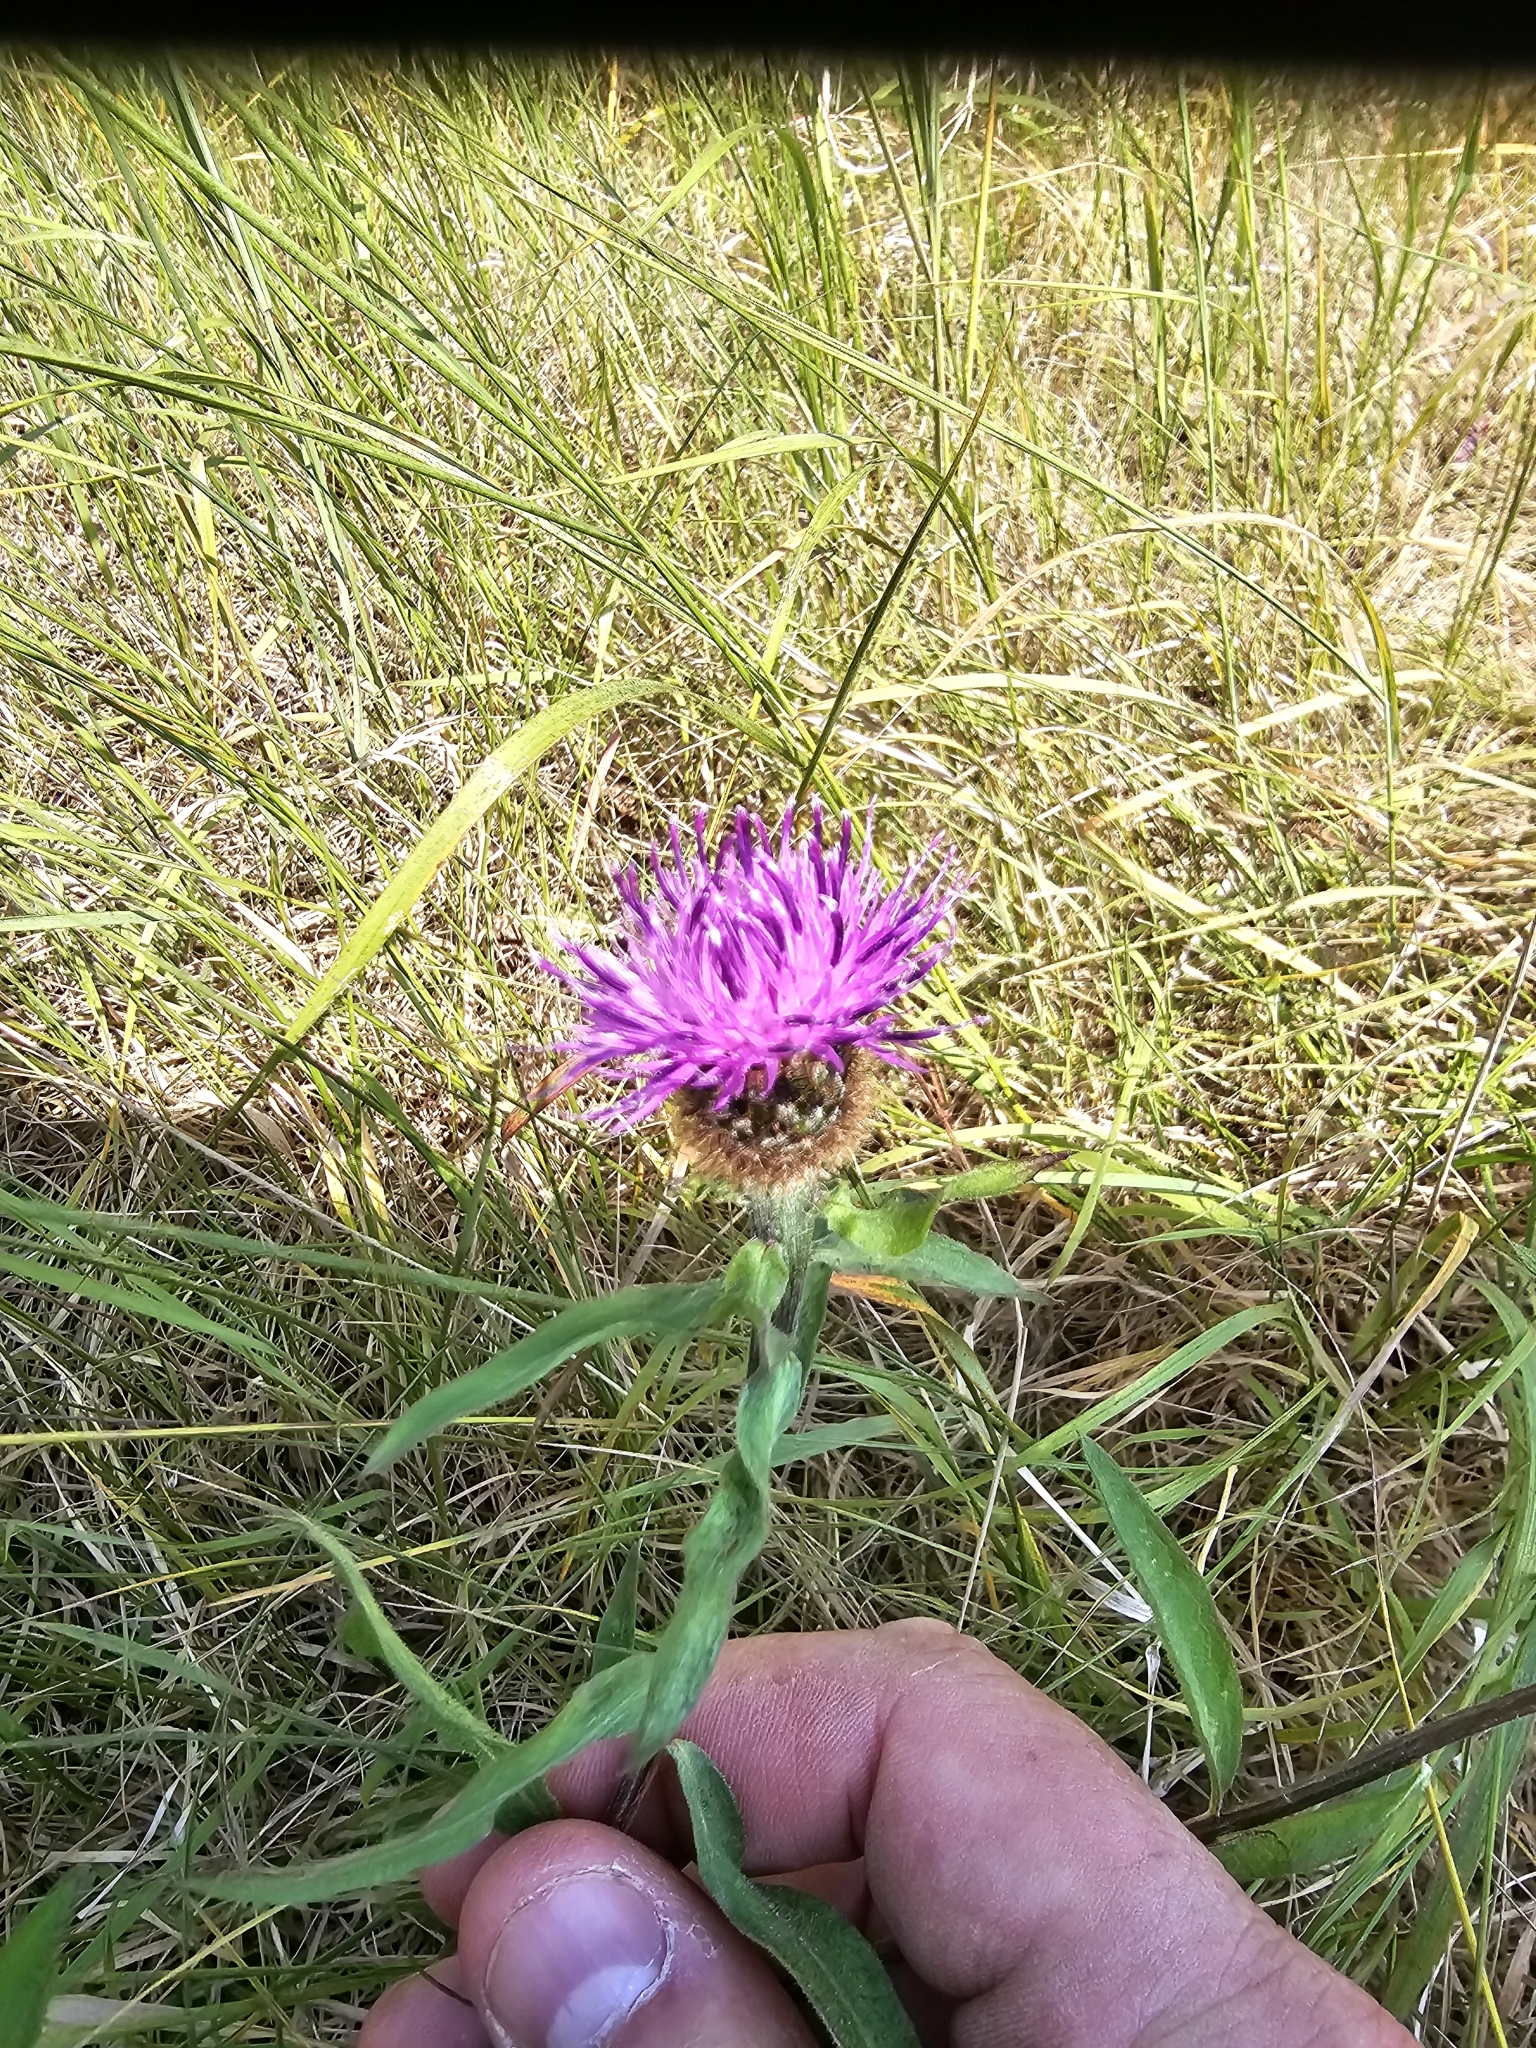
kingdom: Plantae
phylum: Tracheophyta
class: Magnoliopsida
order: Asterales
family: Asteraceae
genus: Centaurea
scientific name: Centaurea nigra
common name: Lesser knapweed
